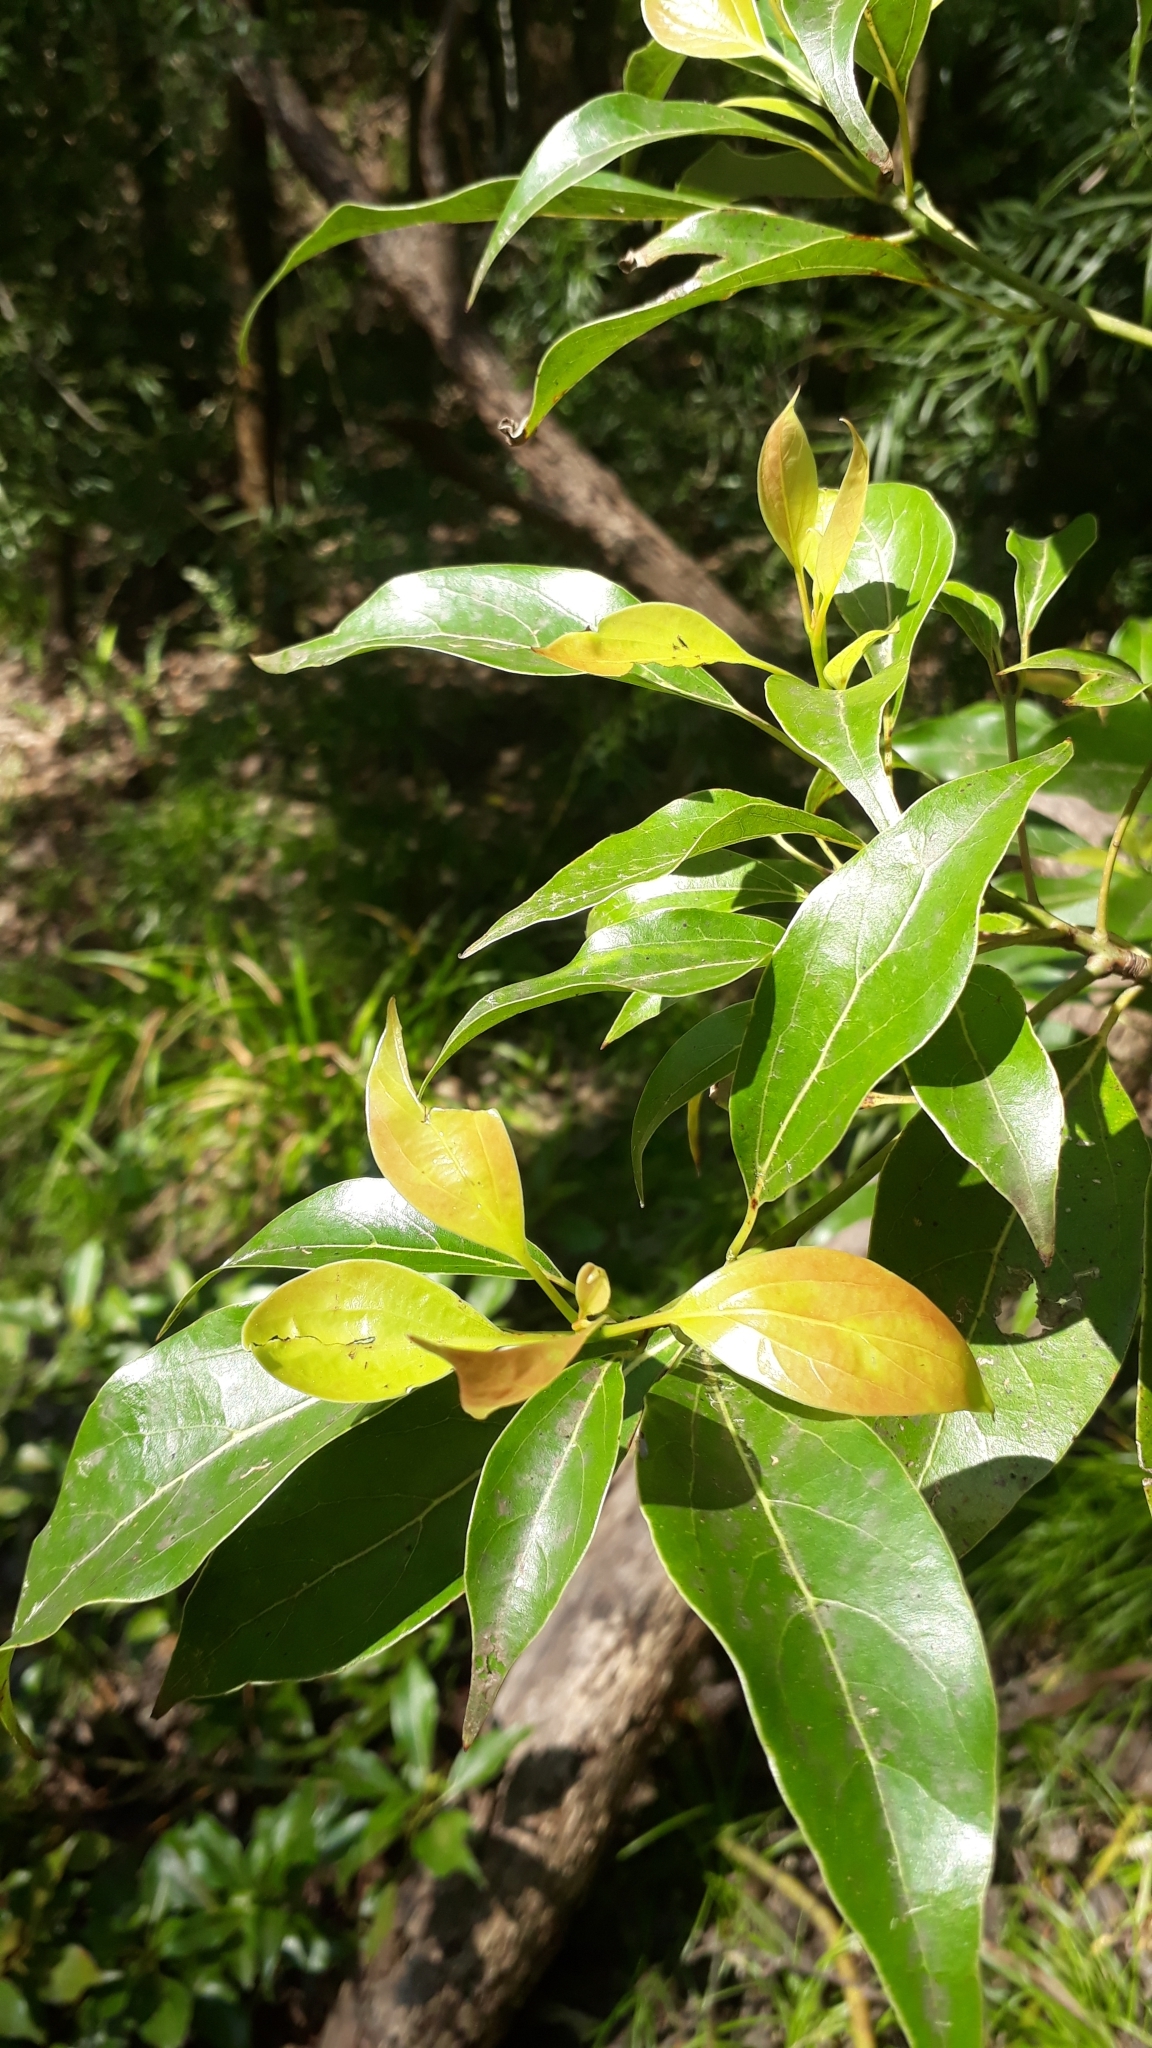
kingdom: Plantae
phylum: Tracheophyta
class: Magnoliopsida
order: Laurales
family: Lauraceae
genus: Cinnamomum
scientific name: Cinnamomum camphora
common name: Camphortree
